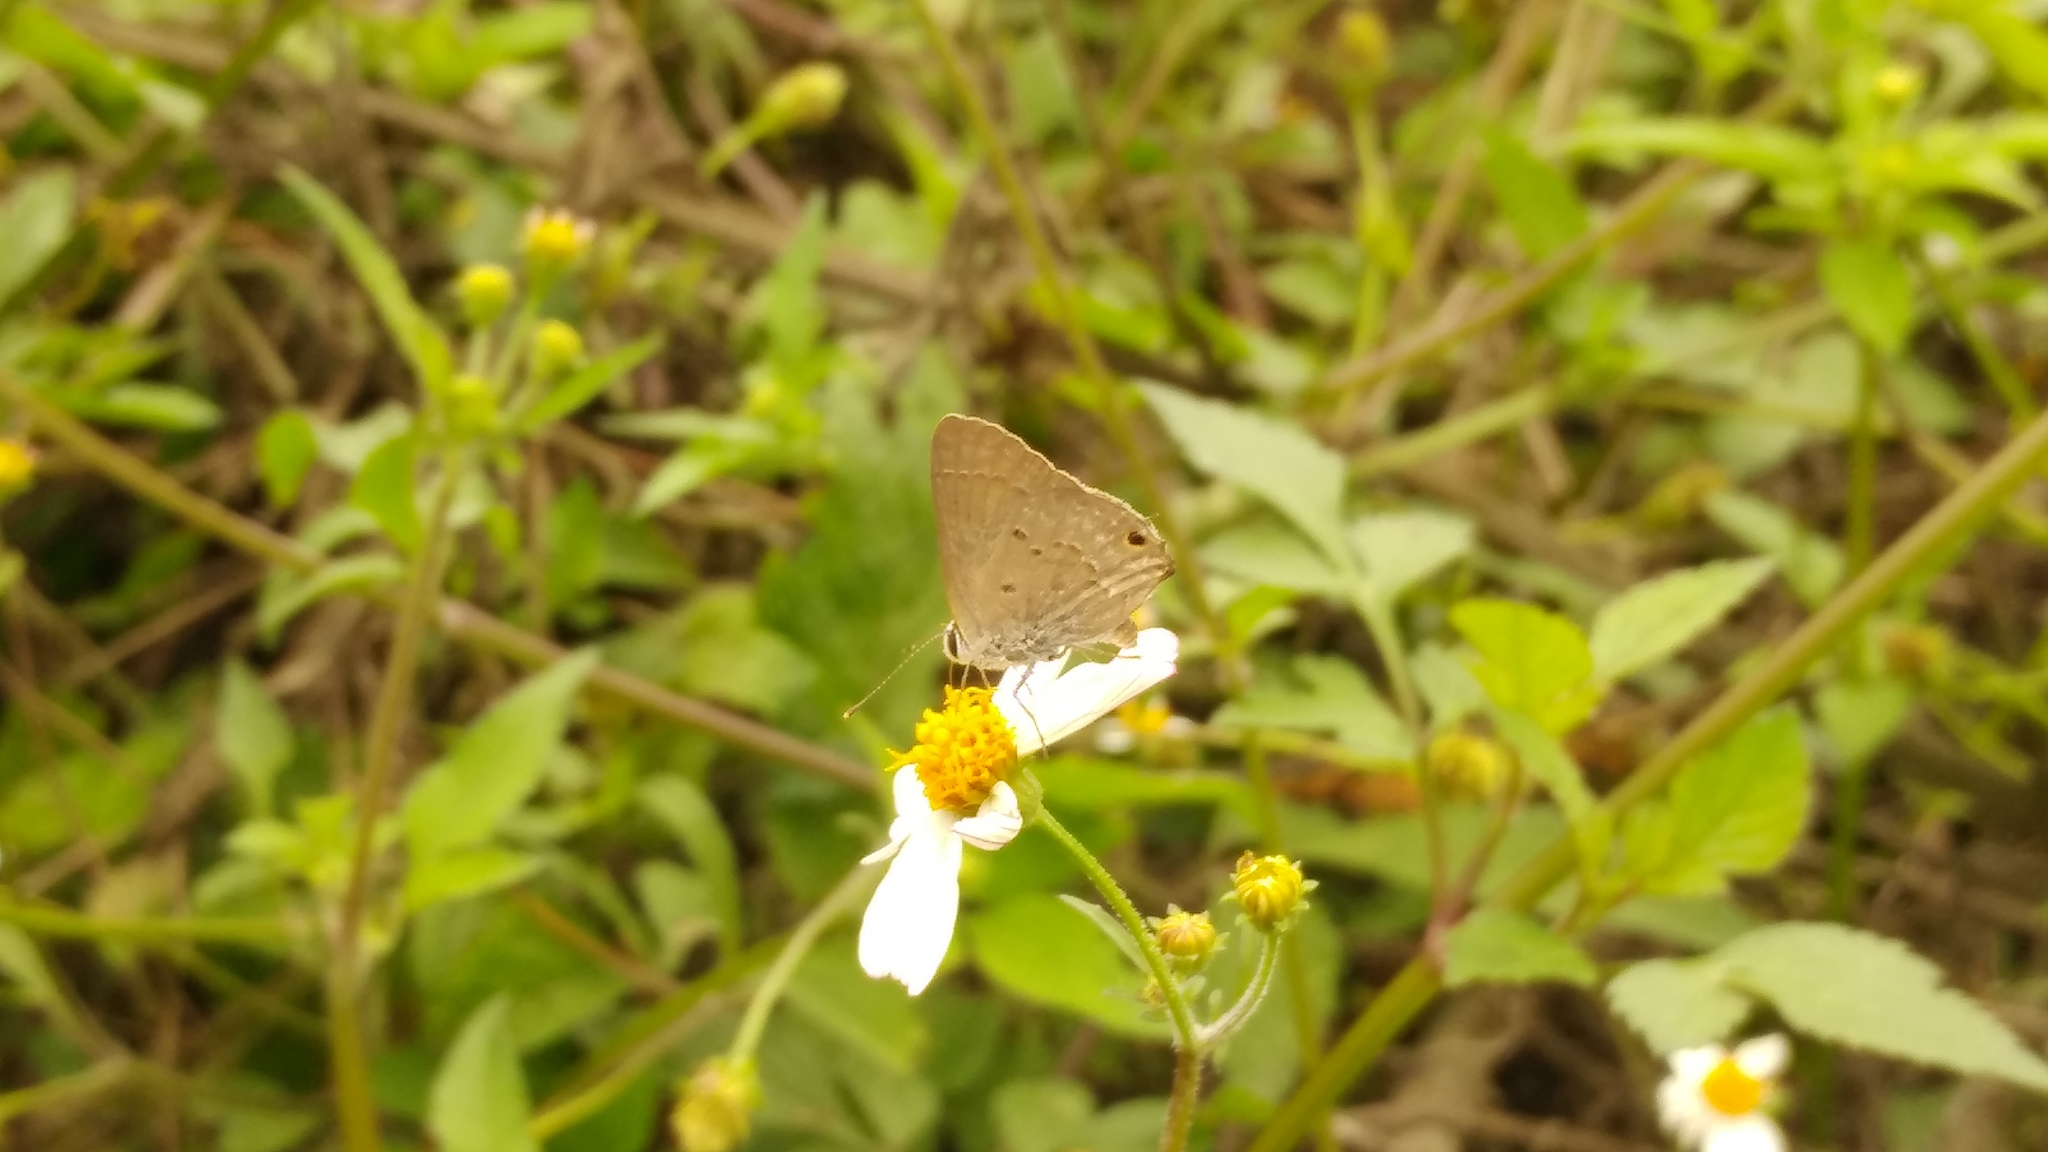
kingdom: Animalia
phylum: Arthropoda
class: Insecta
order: Lepidoptera
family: Lycaenidae
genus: Callicista
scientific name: Callicista columella
